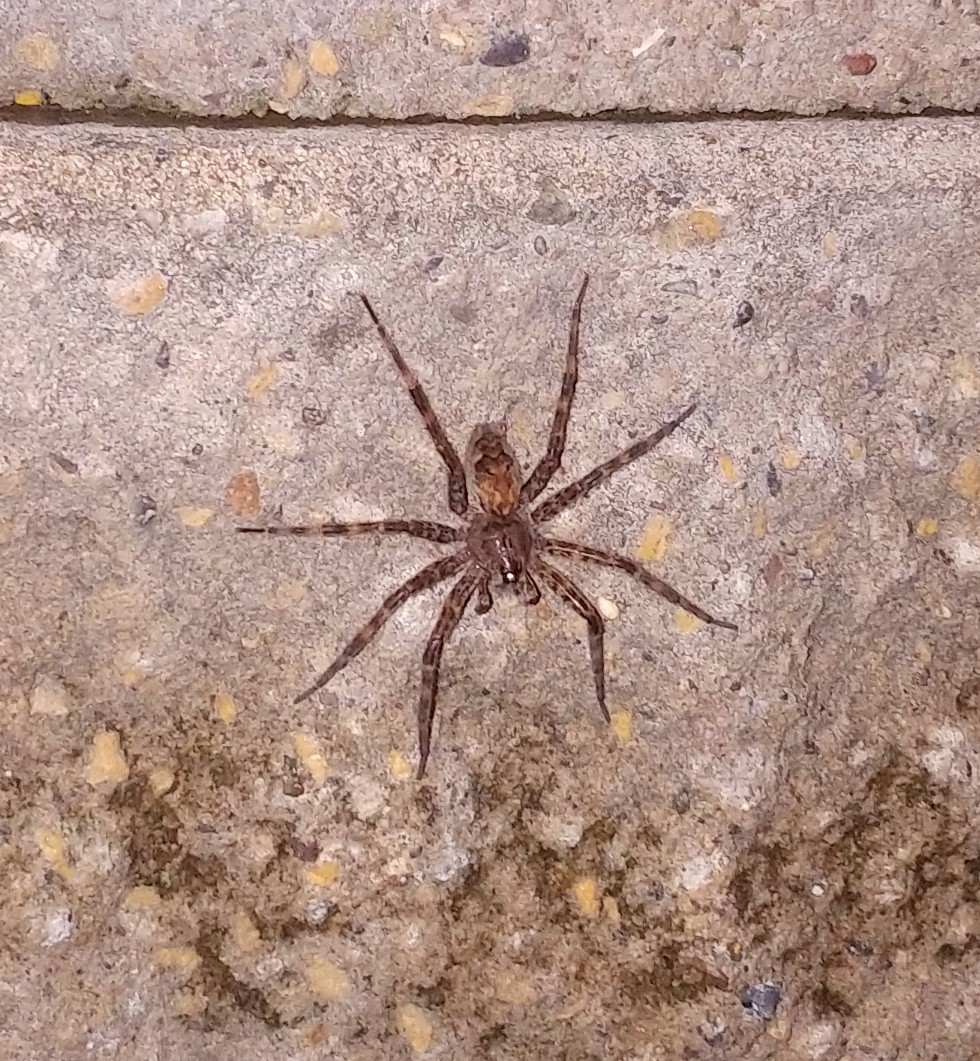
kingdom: Animalia
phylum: Arthropoda
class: Arachnida
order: Araneae
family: Pisauridae
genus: Dolomedes
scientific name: Dolomedes tenebrosus
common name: Dark fishing spider
